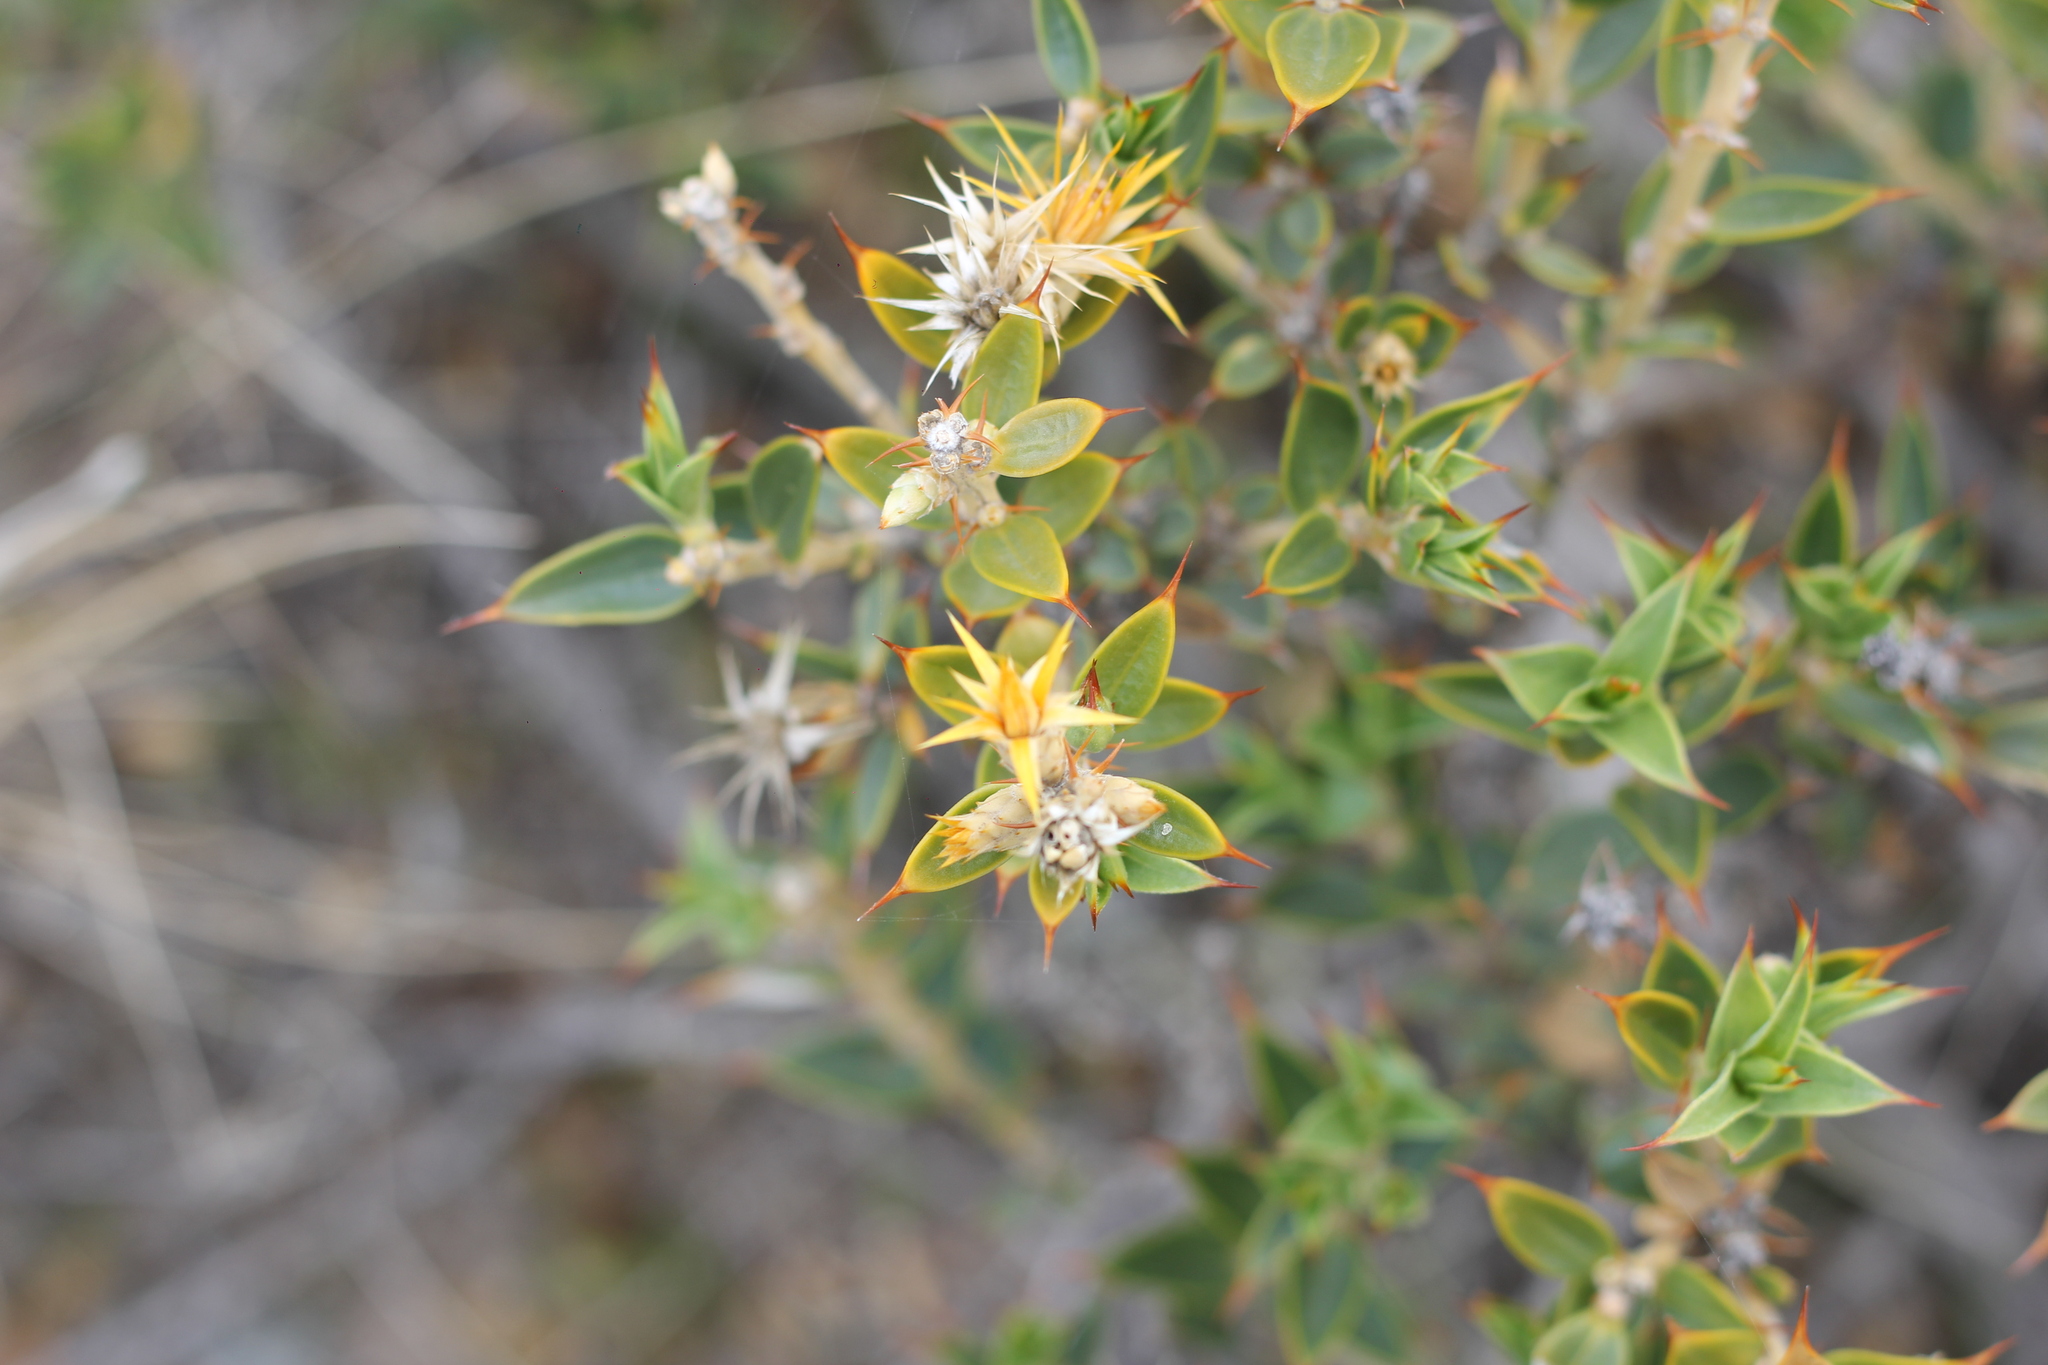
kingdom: Plantae
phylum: Tracheophyta
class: Magnoliopsida
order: Asterales
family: Asteraceae
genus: Chuquiraga
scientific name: Chuquiraga avellanedae
